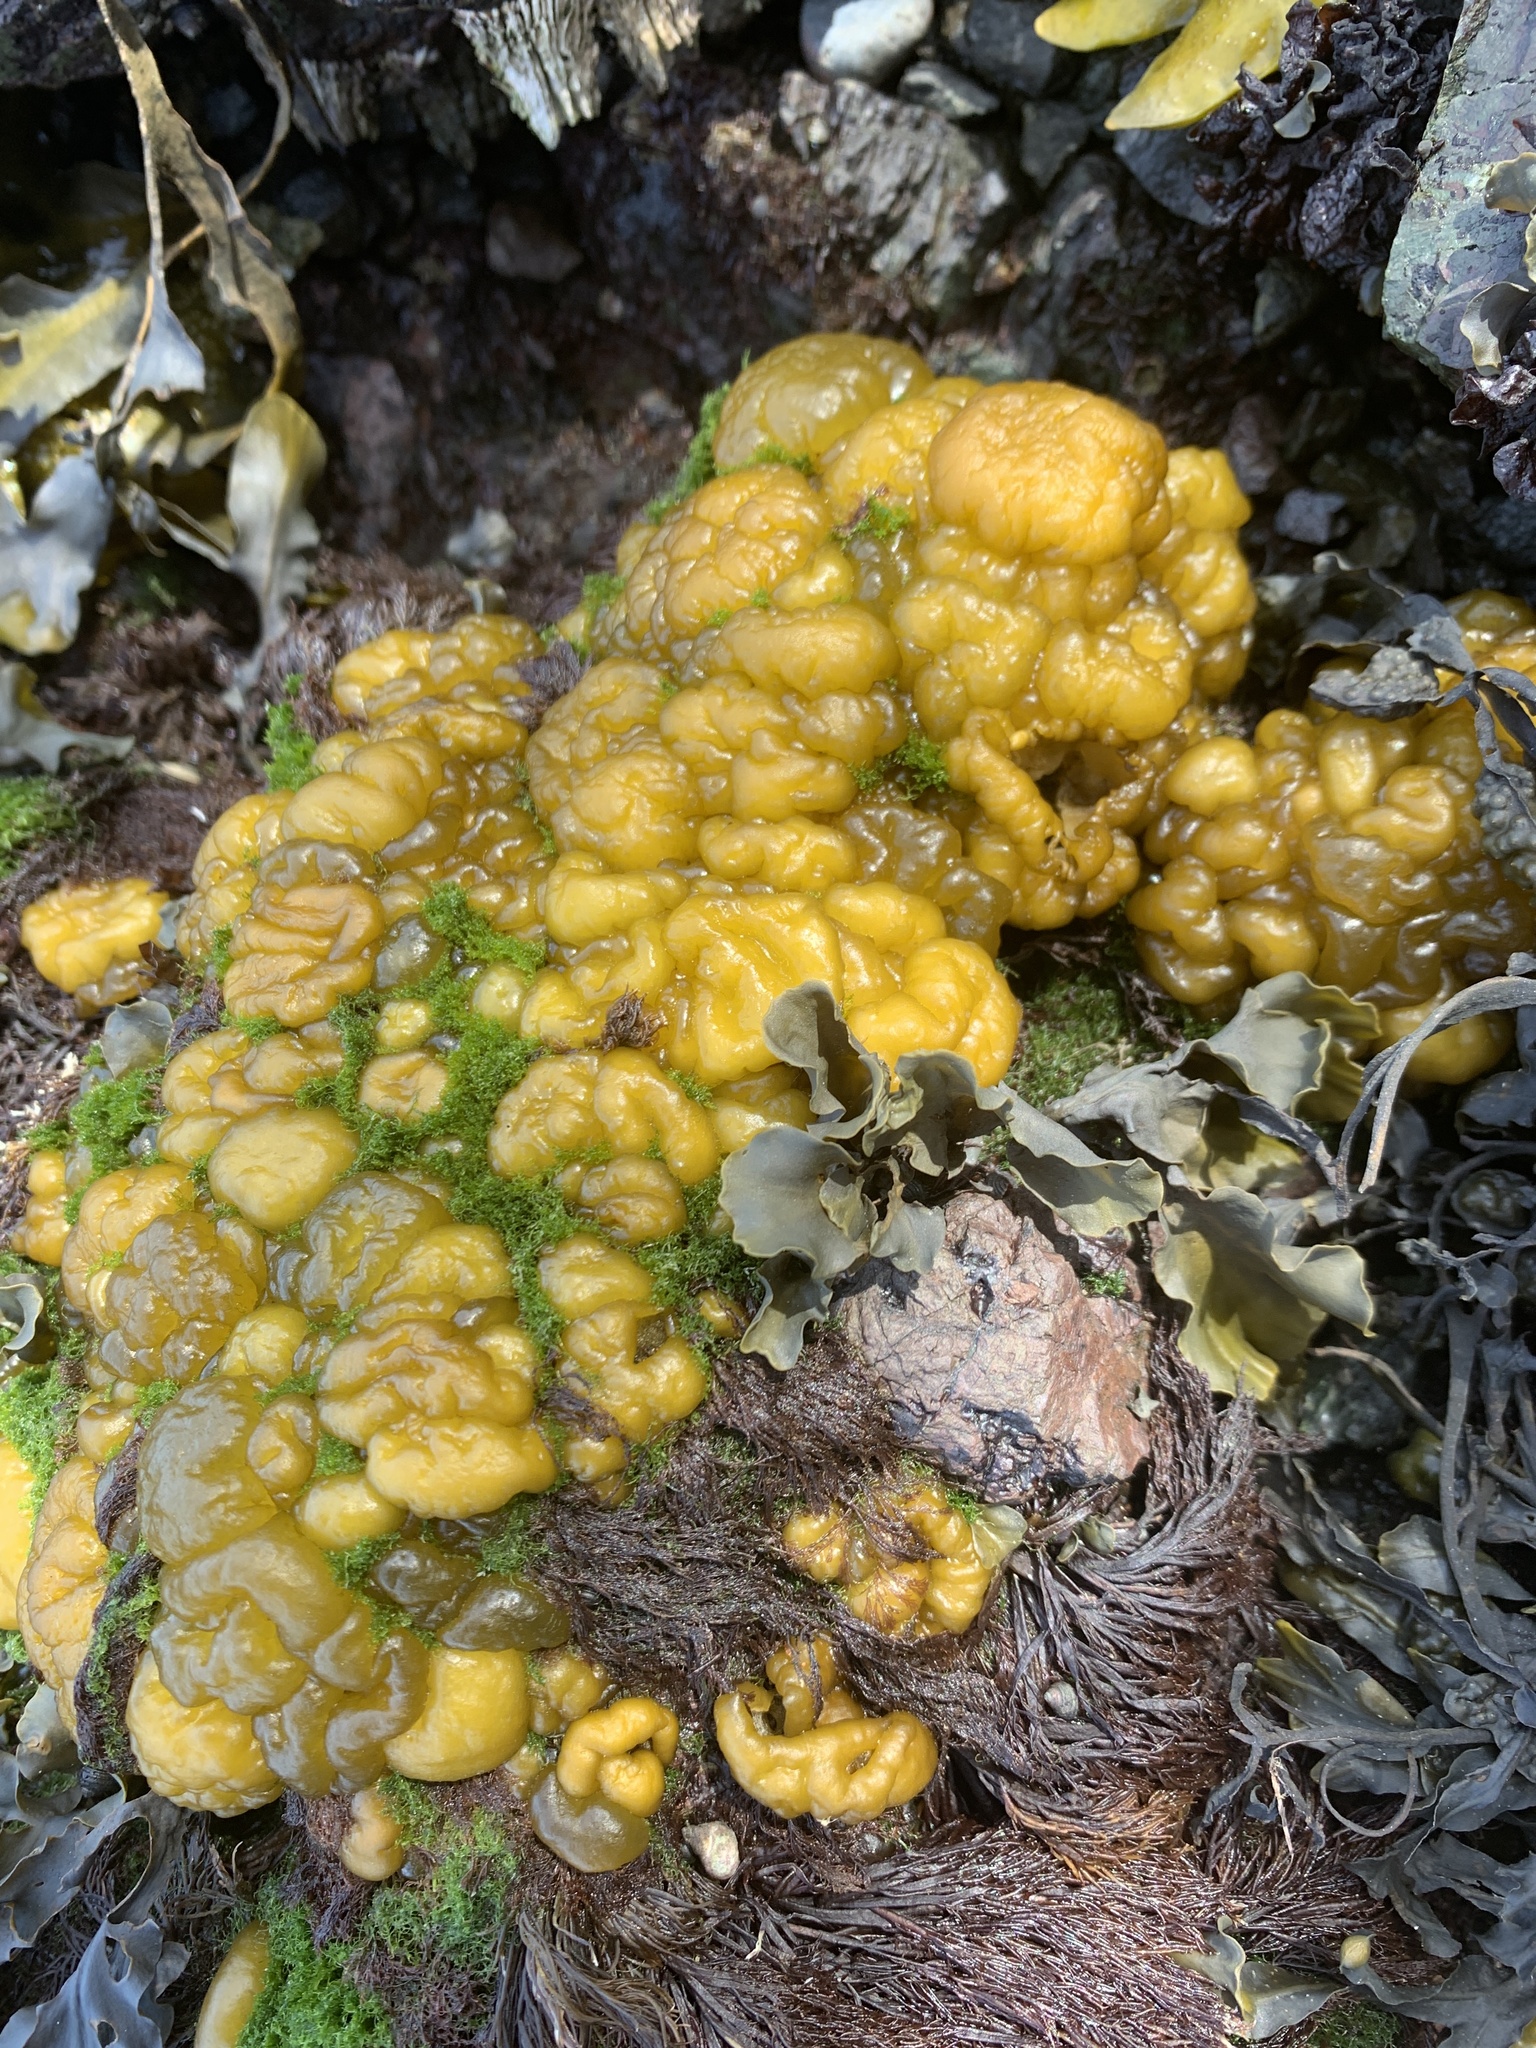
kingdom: Chromista
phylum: Ochrophyta
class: Phaeophyceae
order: Ectocarpales
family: Chordariaceae
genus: Leathesia
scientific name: Leathesia marina
